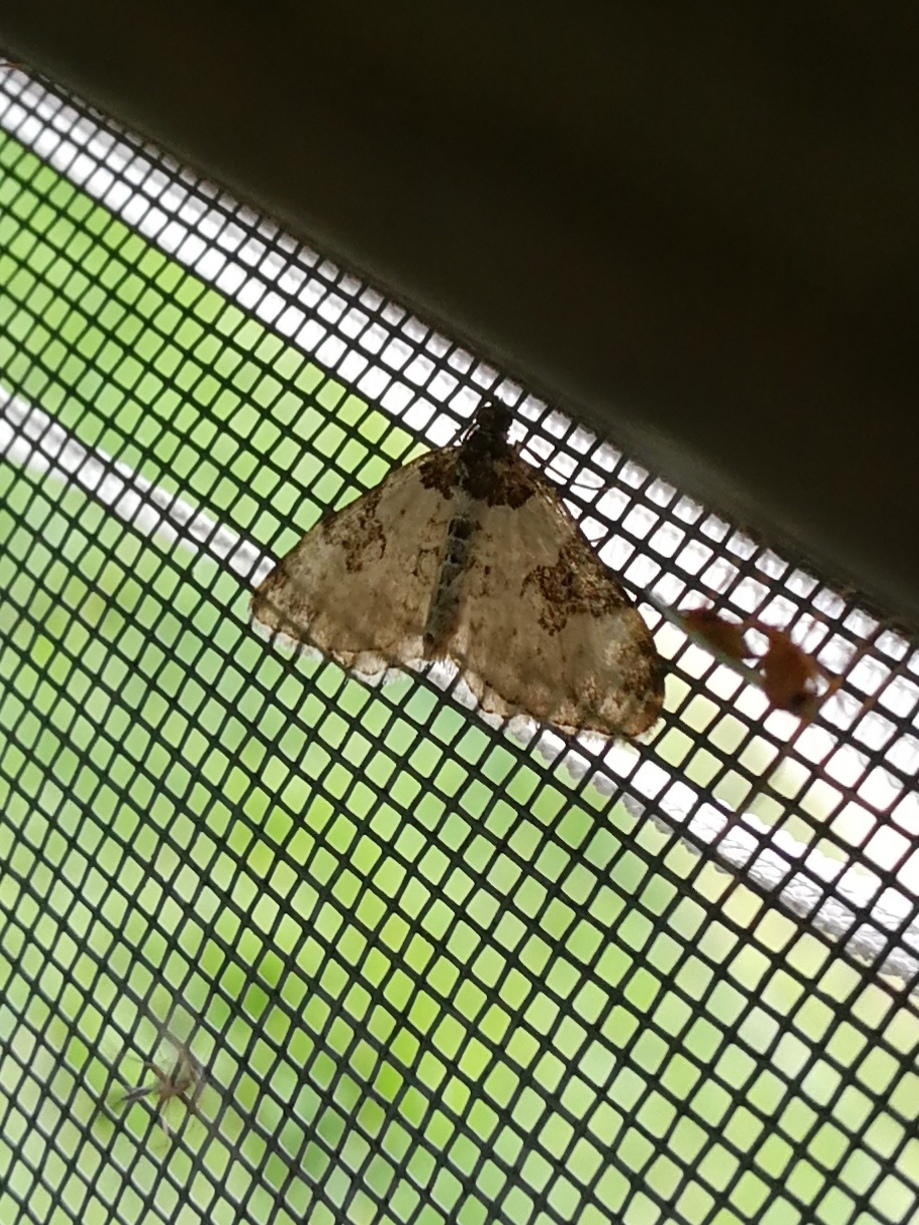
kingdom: Animalia
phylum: Arthropoda
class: Insecta
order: Lepidoptera
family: Geometridae
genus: Xanthorhoe
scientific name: Xanthorhoe fluctuata
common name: Garden carpet
